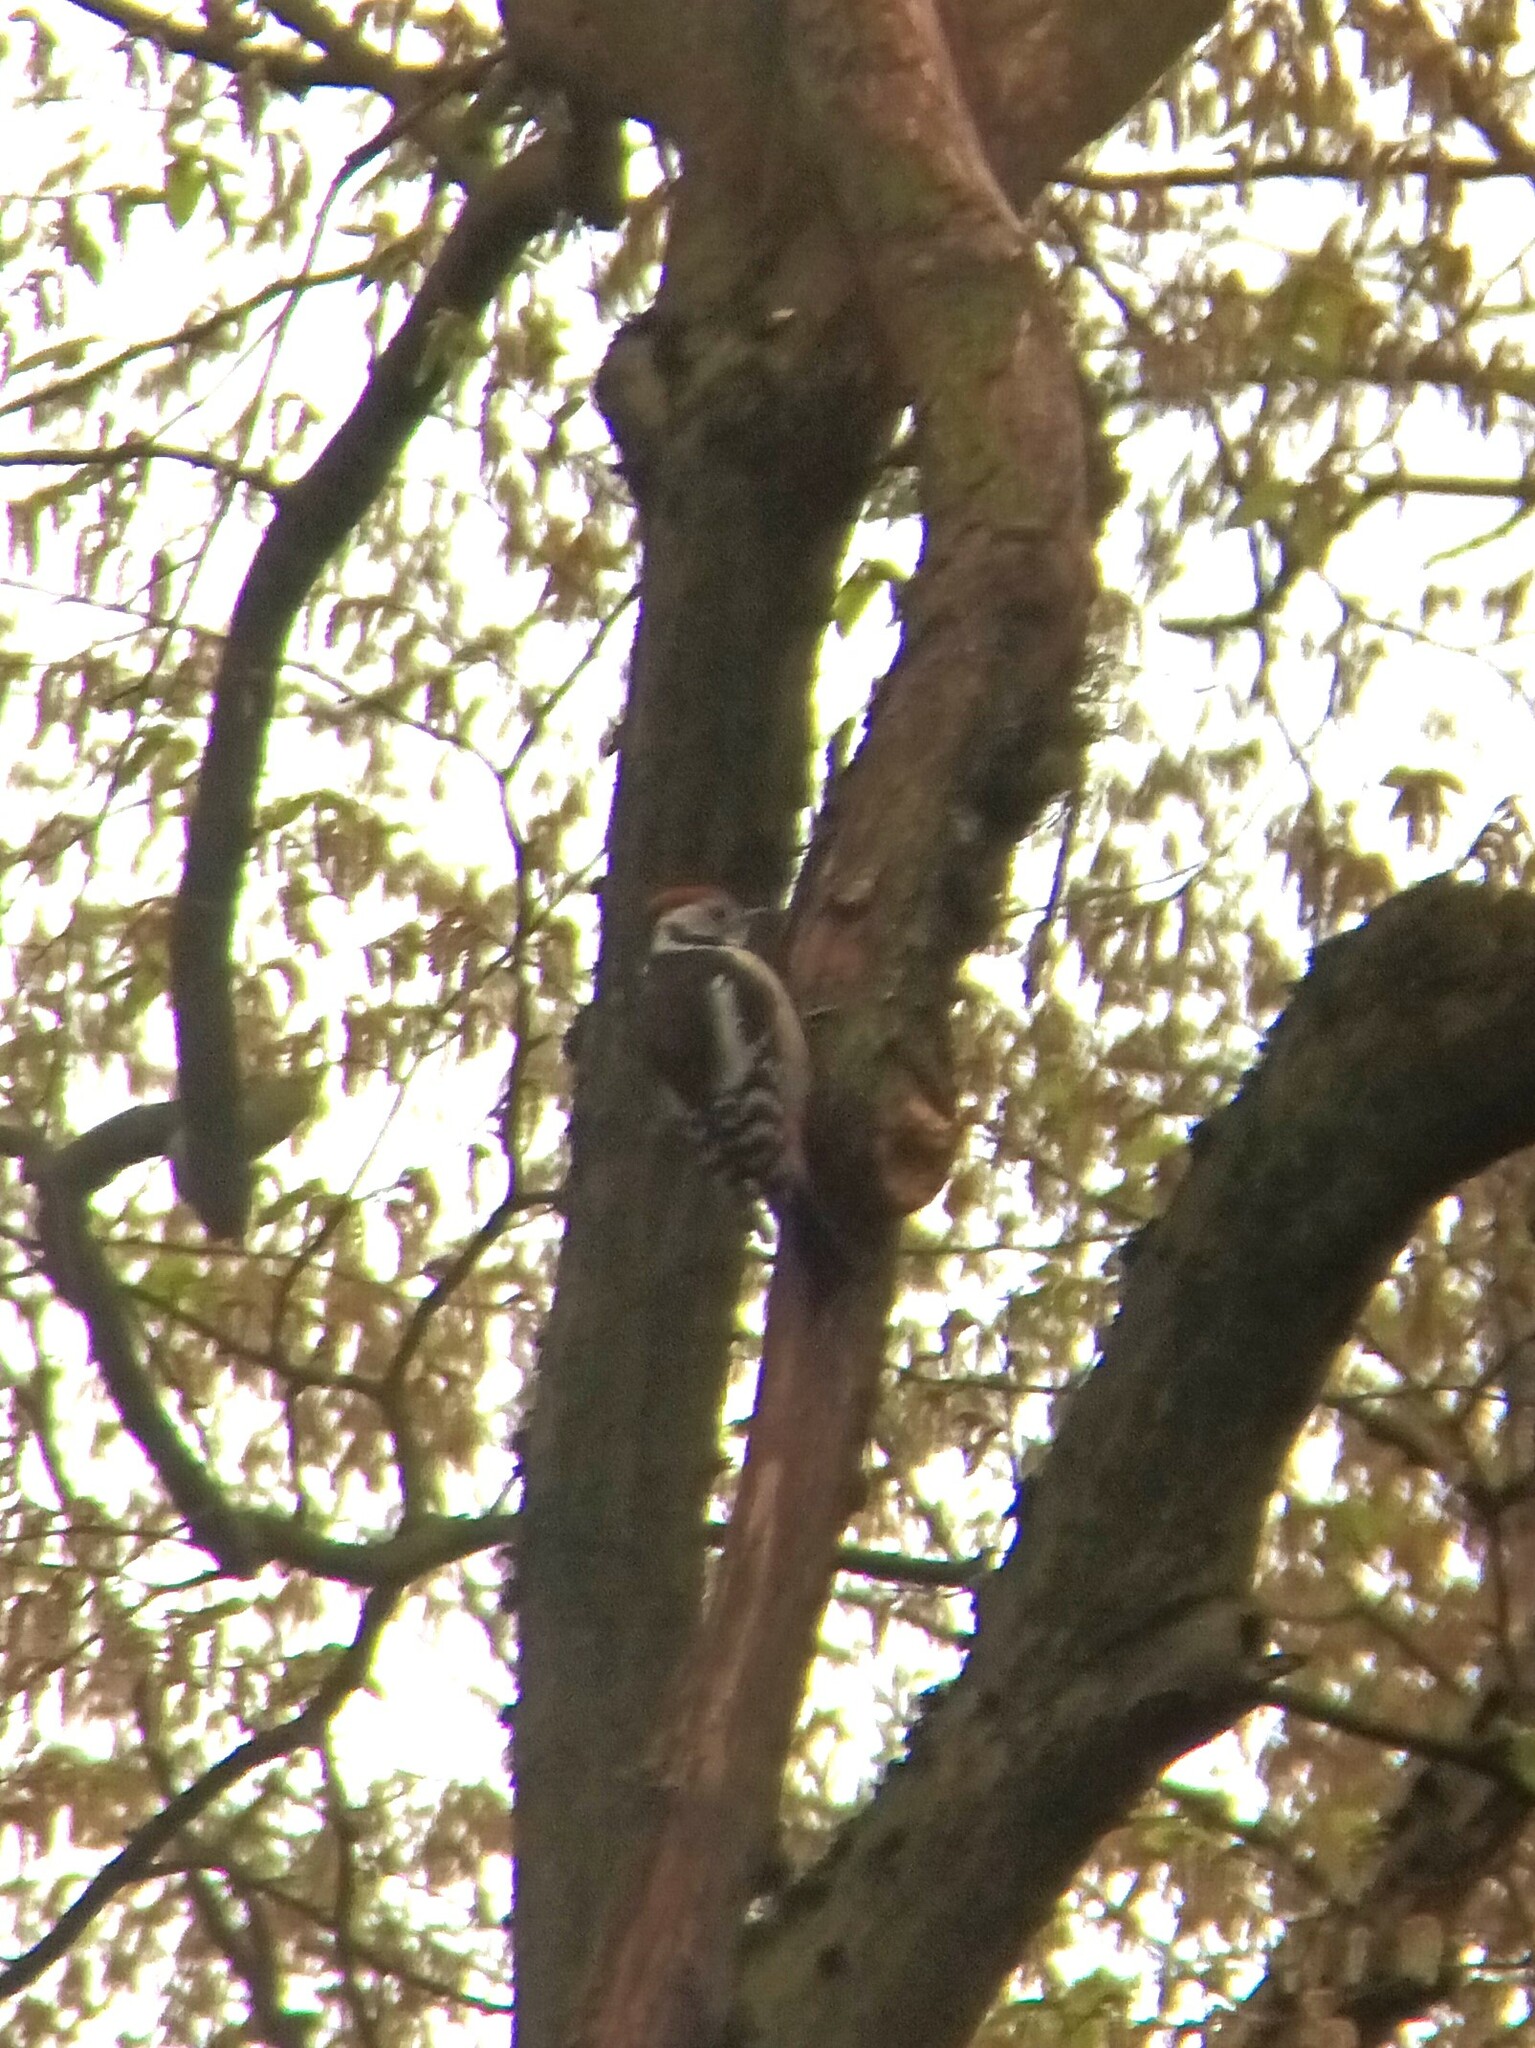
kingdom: Animalia
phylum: Chordata
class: Aves
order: Piciformes
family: Picidae
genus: Dendrocoptes
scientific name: Dendrocoptes medius
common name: Middle spotted woodpecker
